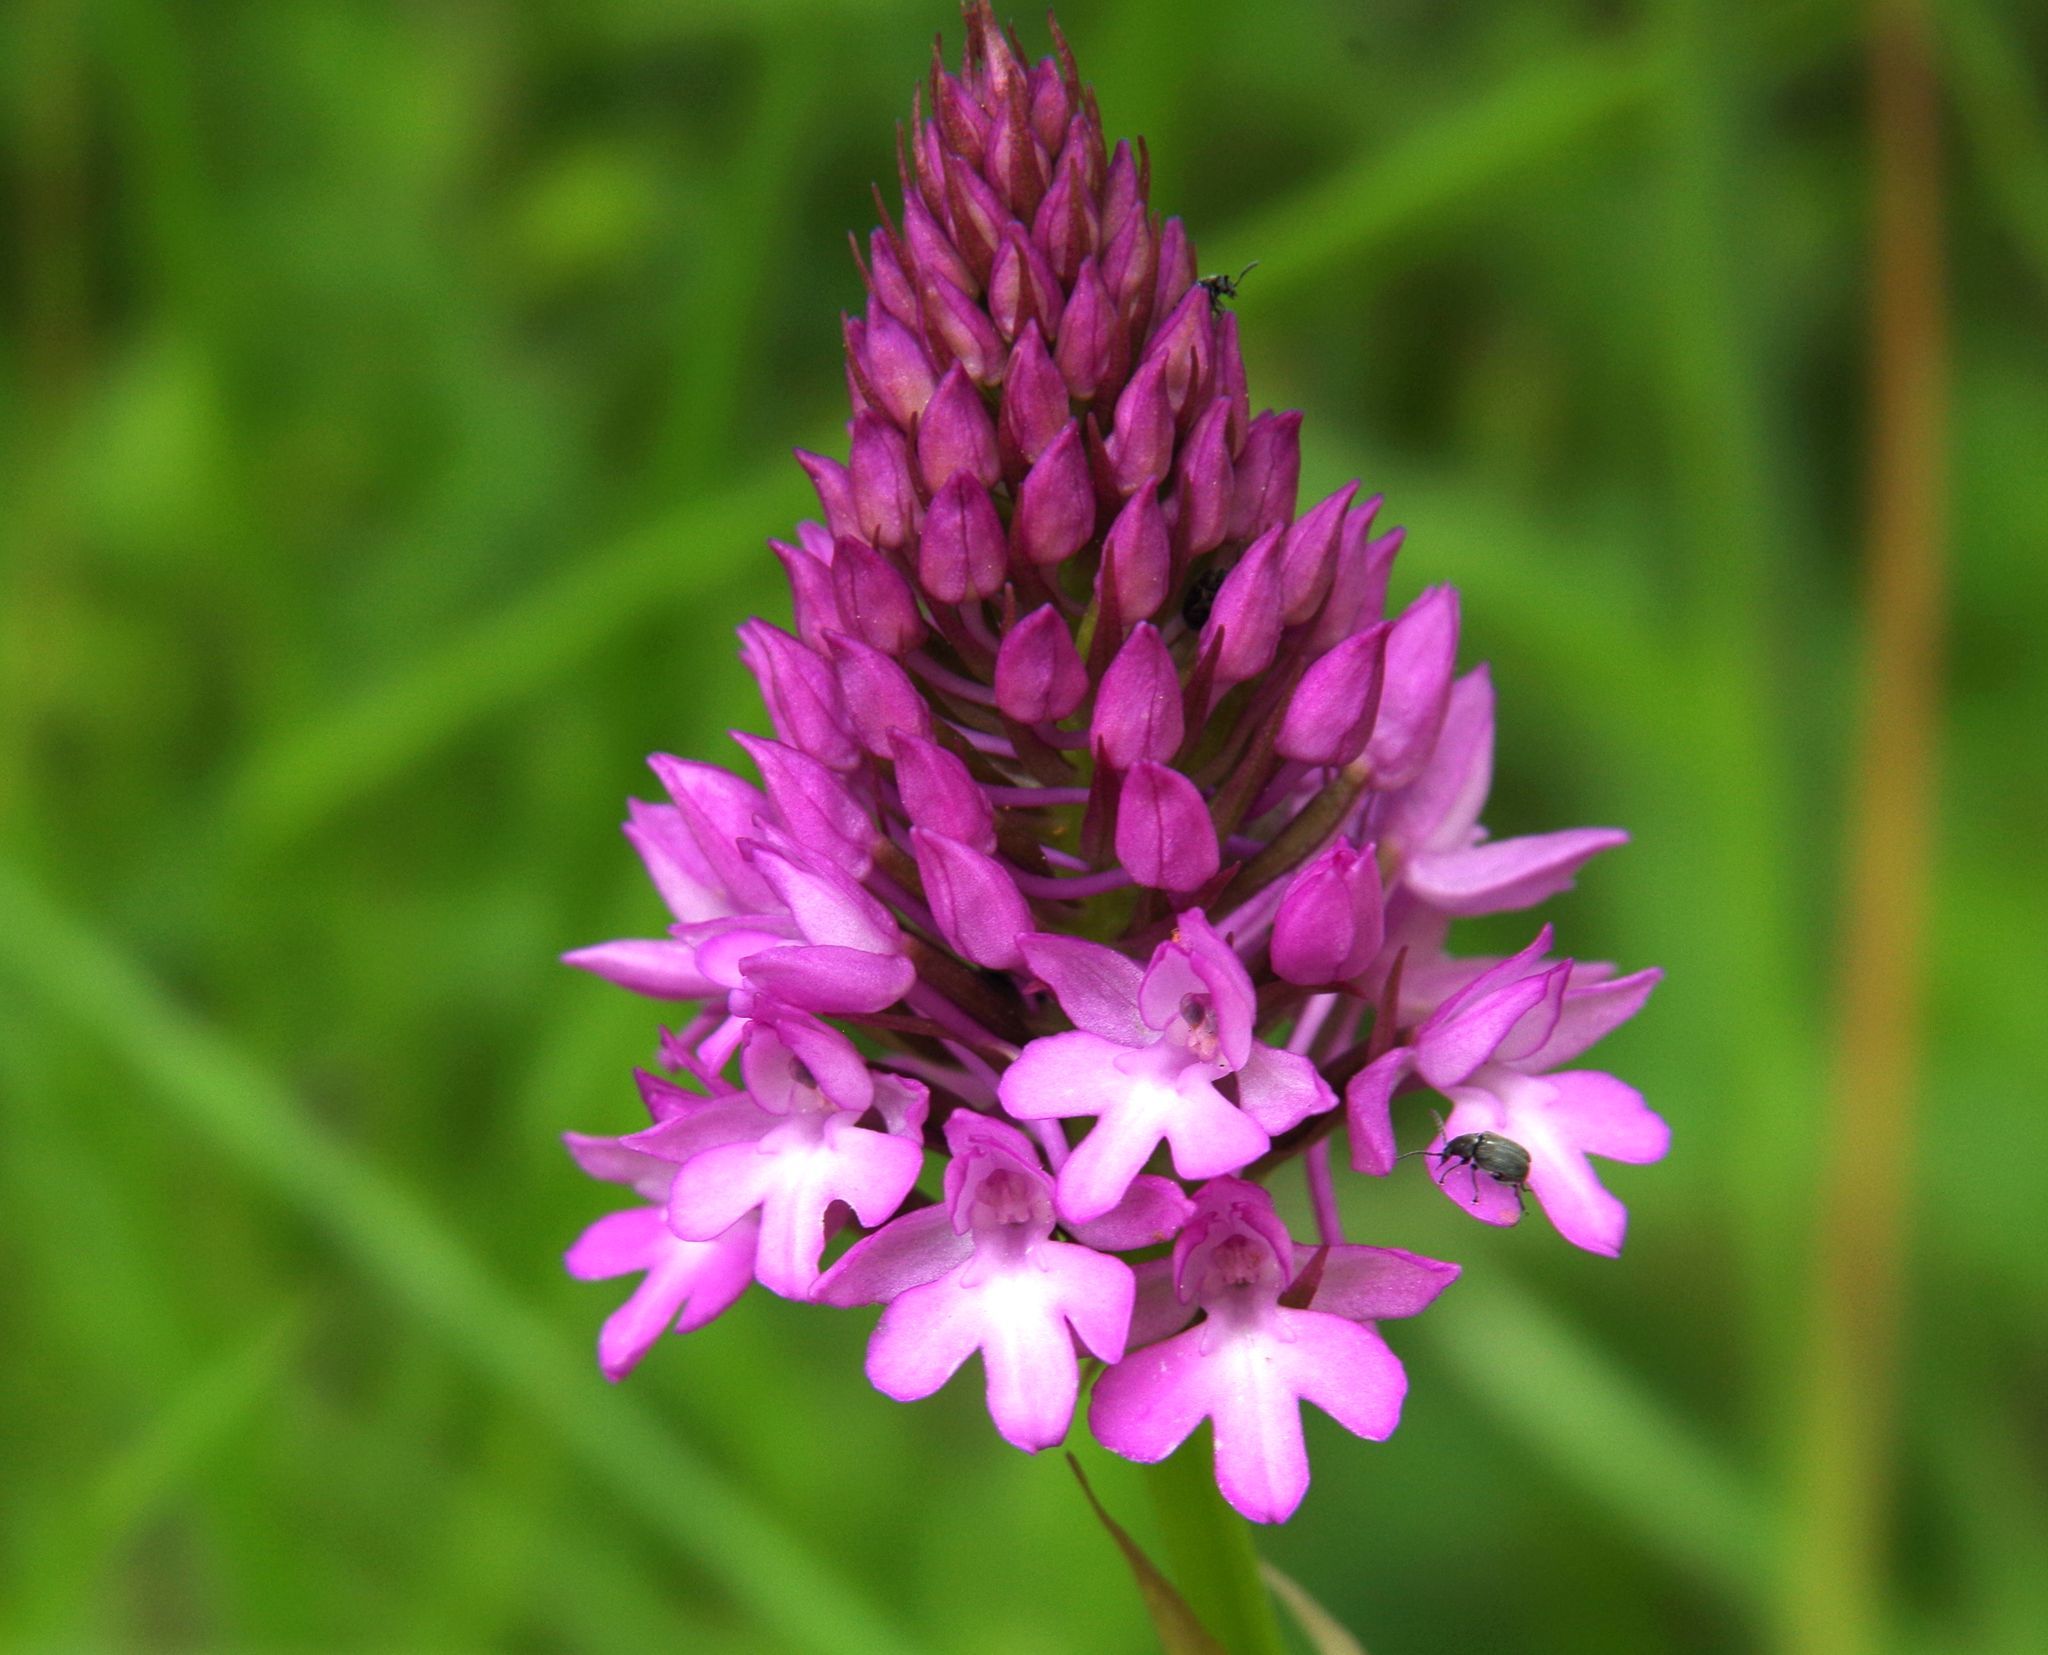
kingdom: Plantae
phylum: Tracheophyta
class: Liliopsida
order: Asparagales
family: Orchidaceae
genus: Anacamptis
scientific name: Anacamptis pyramidalis
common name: Pyramidal orchid
